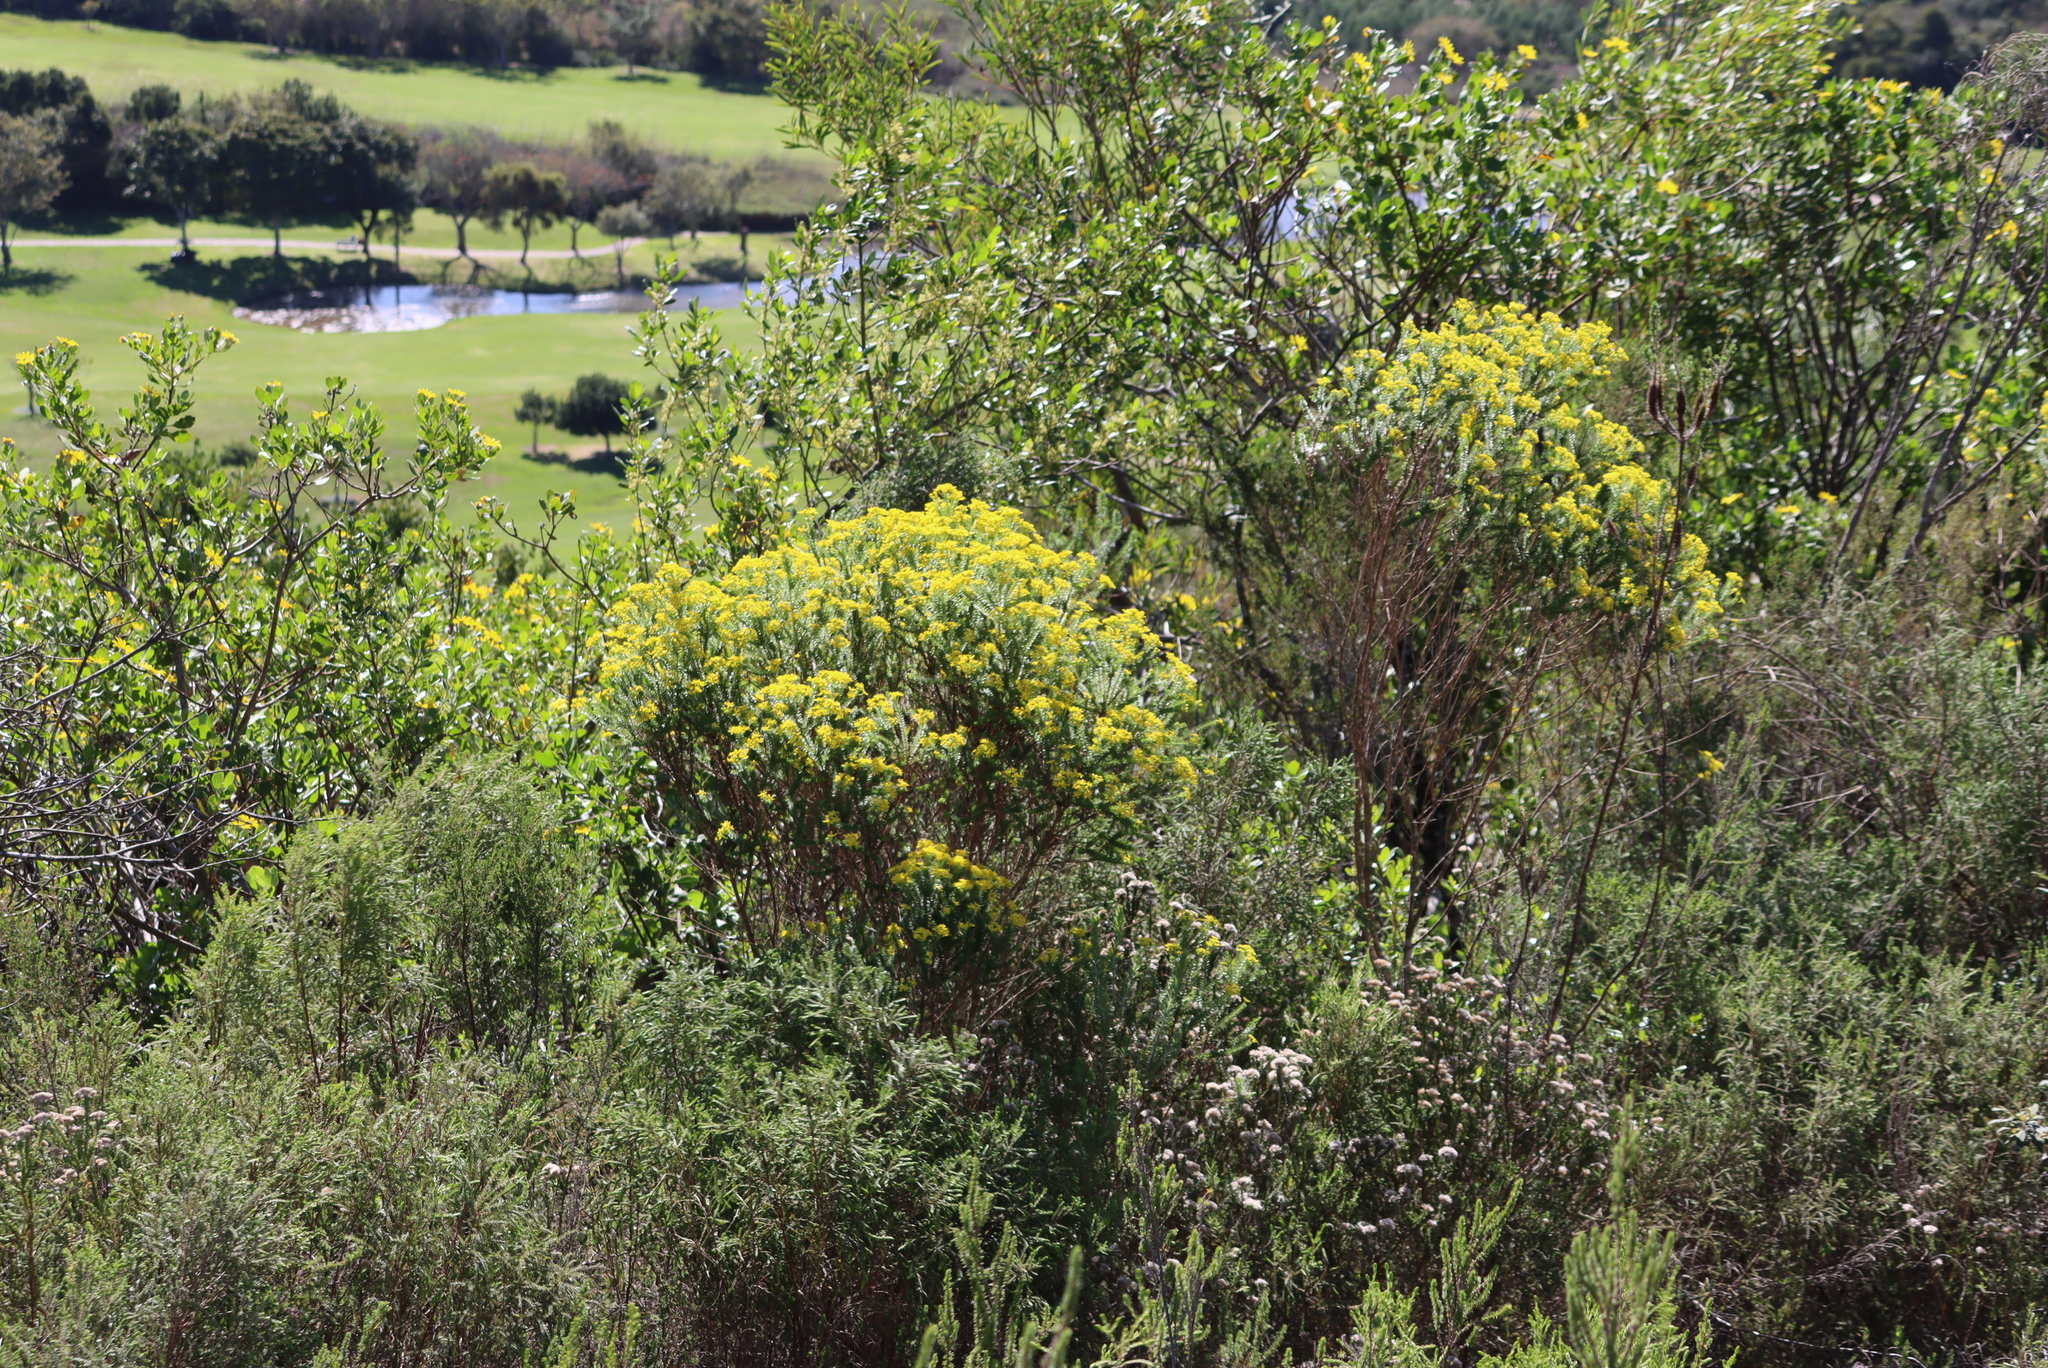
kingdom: Plantae
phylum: Tracheophyta
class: Magnoliopsida
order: Asterales
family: Asteraceae
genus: Euryops
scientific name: Euryops virgineus
